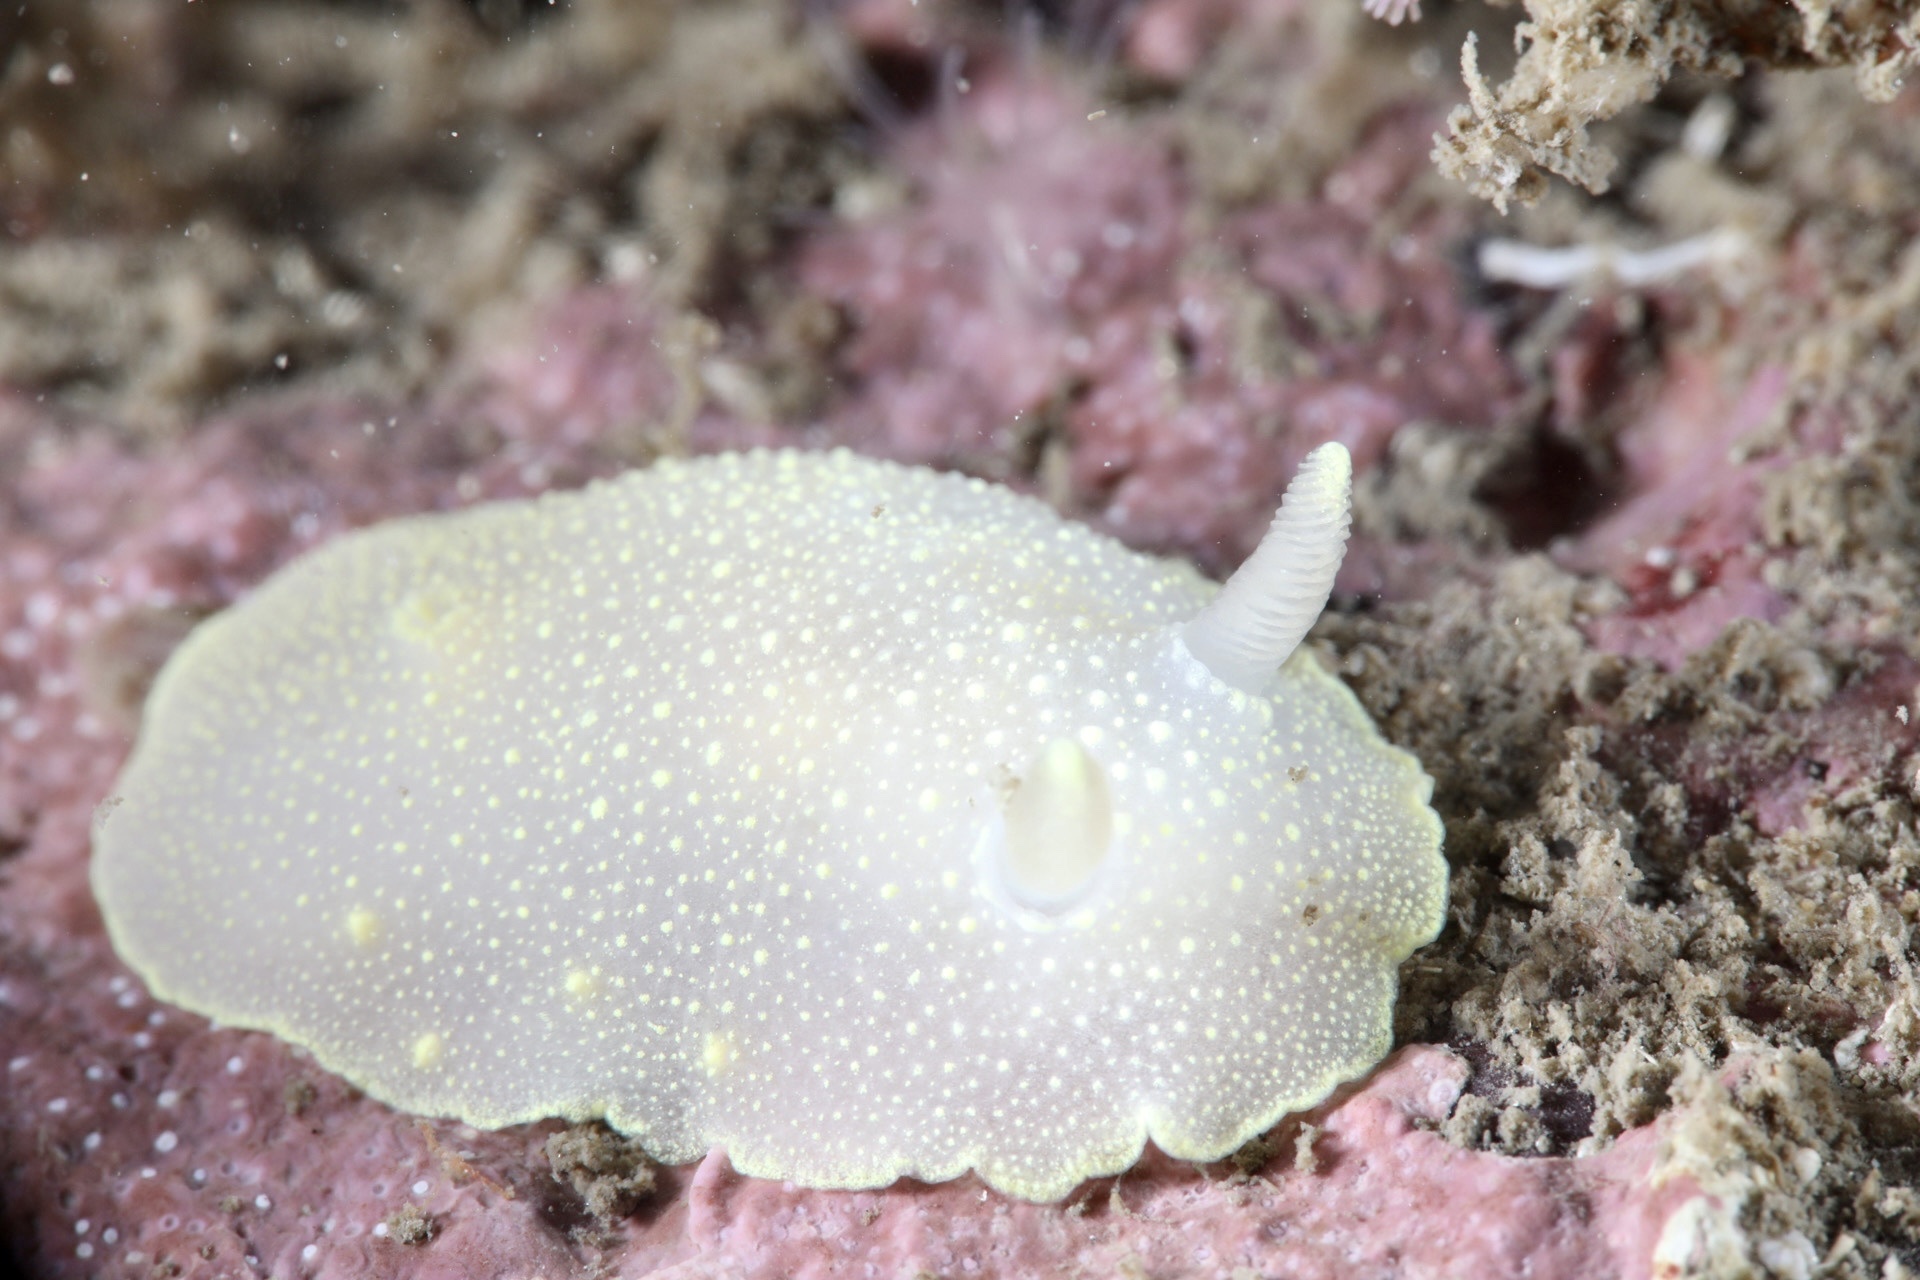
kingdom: Animalia
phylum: Mollusca
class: Gastropoda
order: Nudibranchia
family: Cadlinidae
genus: Cadlina
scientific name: Cadlina laevis
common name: White atlantic cadlina
